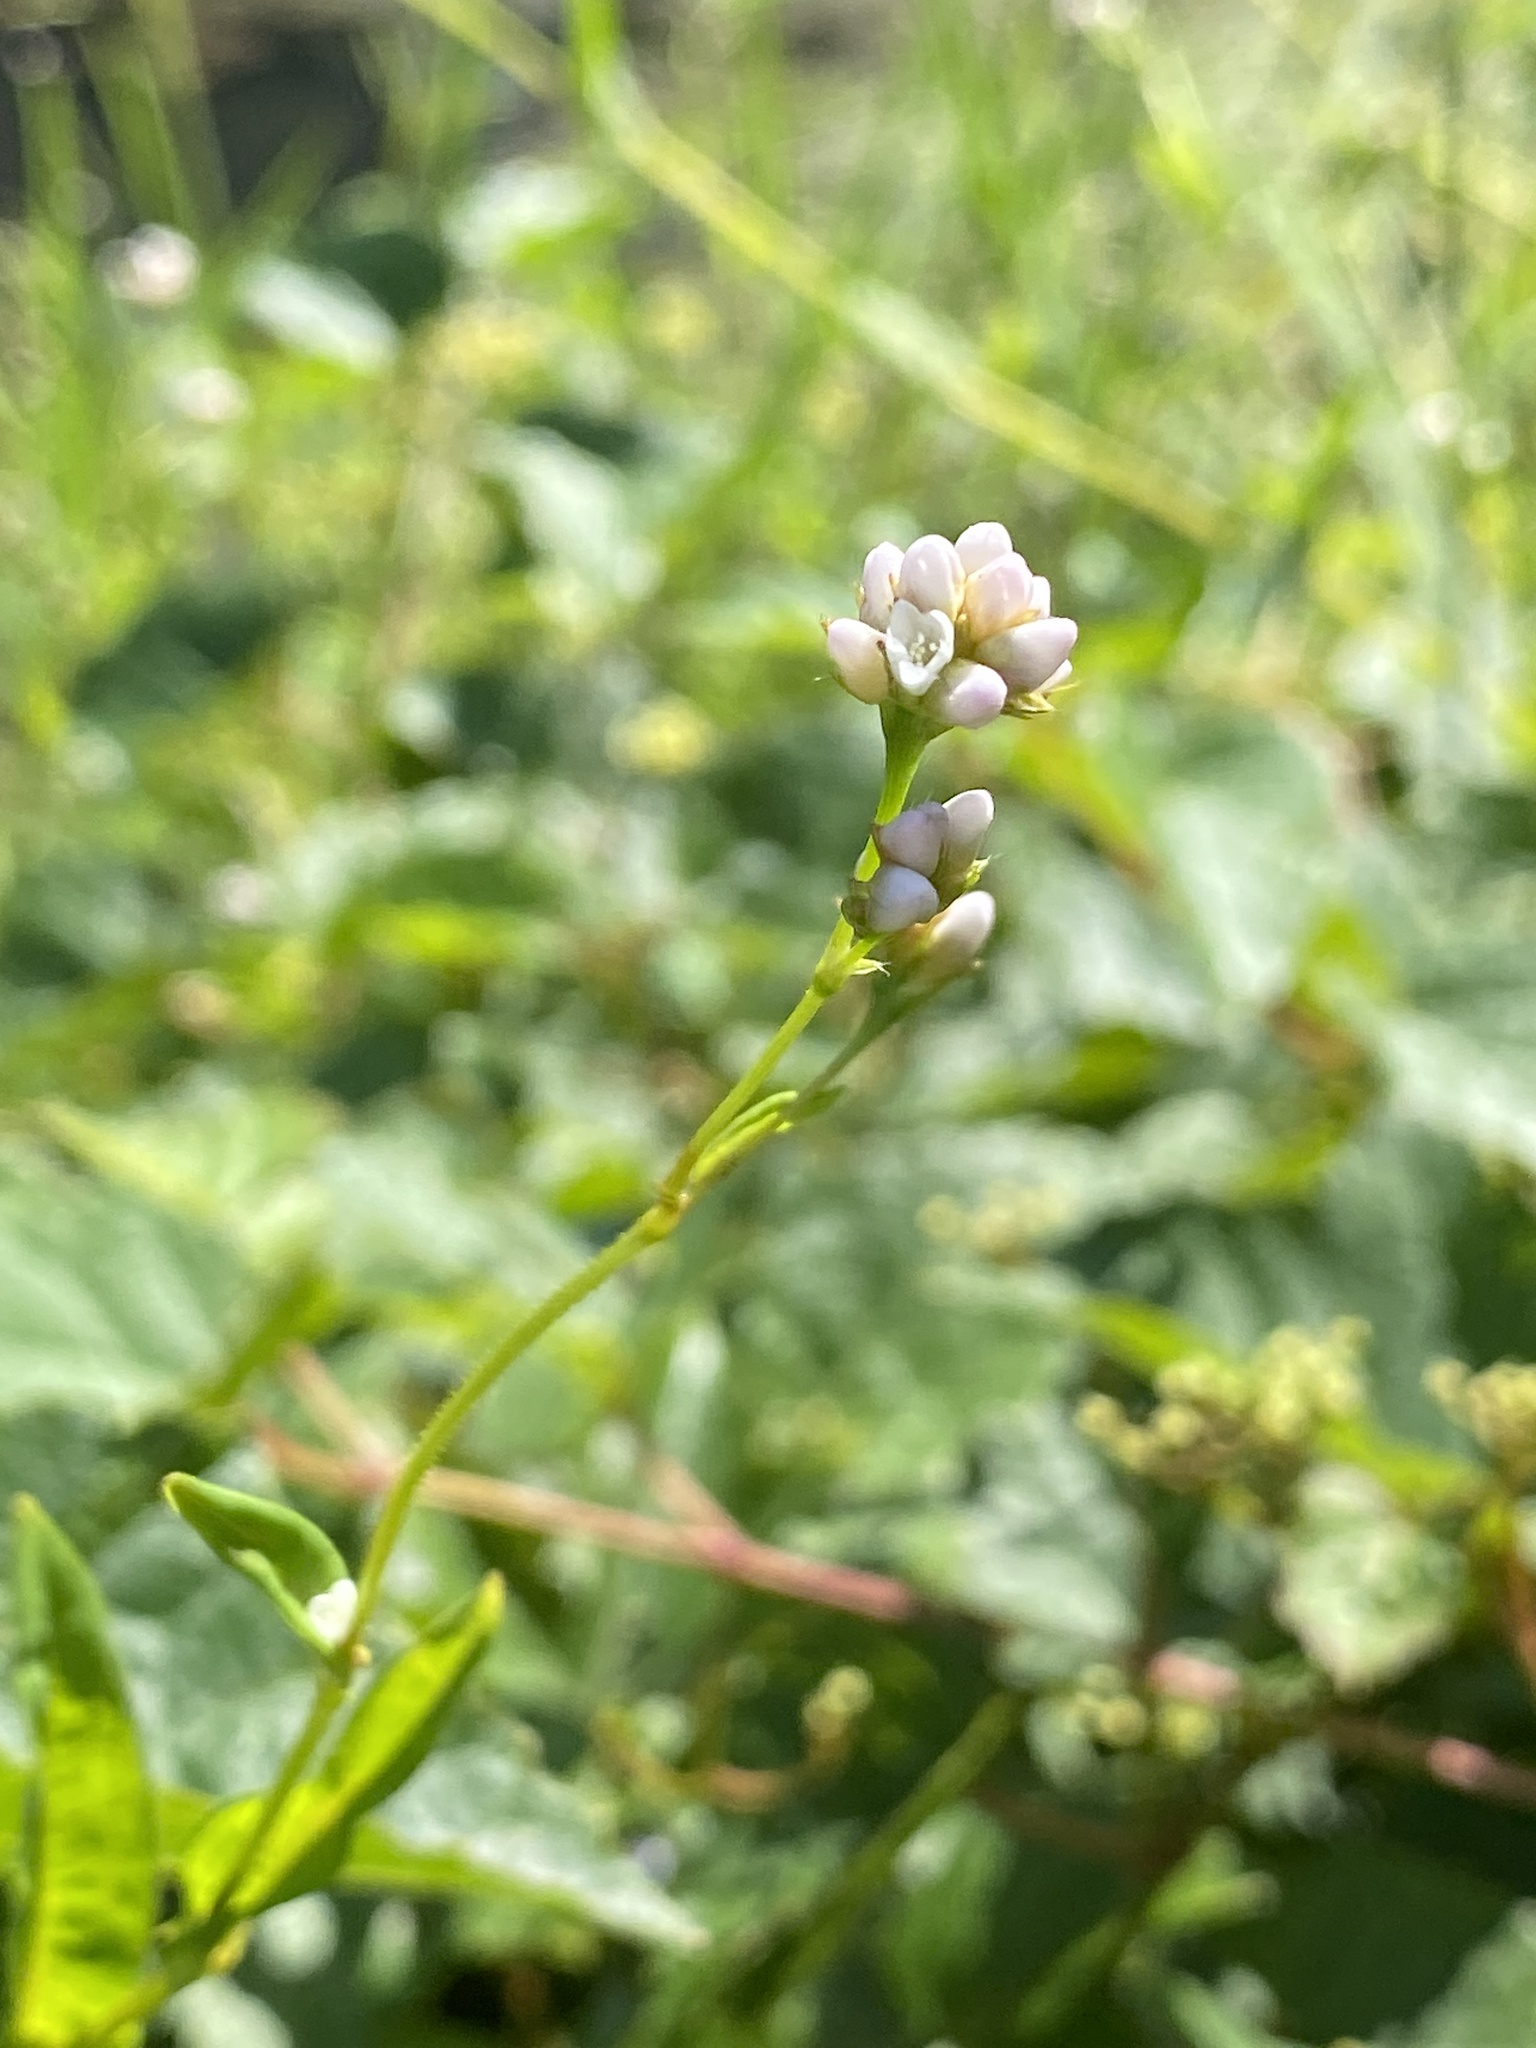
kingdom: Plantae
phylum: Tracheophyta
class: Magnoliopsida
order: Caryophyllales
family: Polygonaceae
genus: Persicaria
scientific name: Persicaria sagittata
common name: American tearthumb
